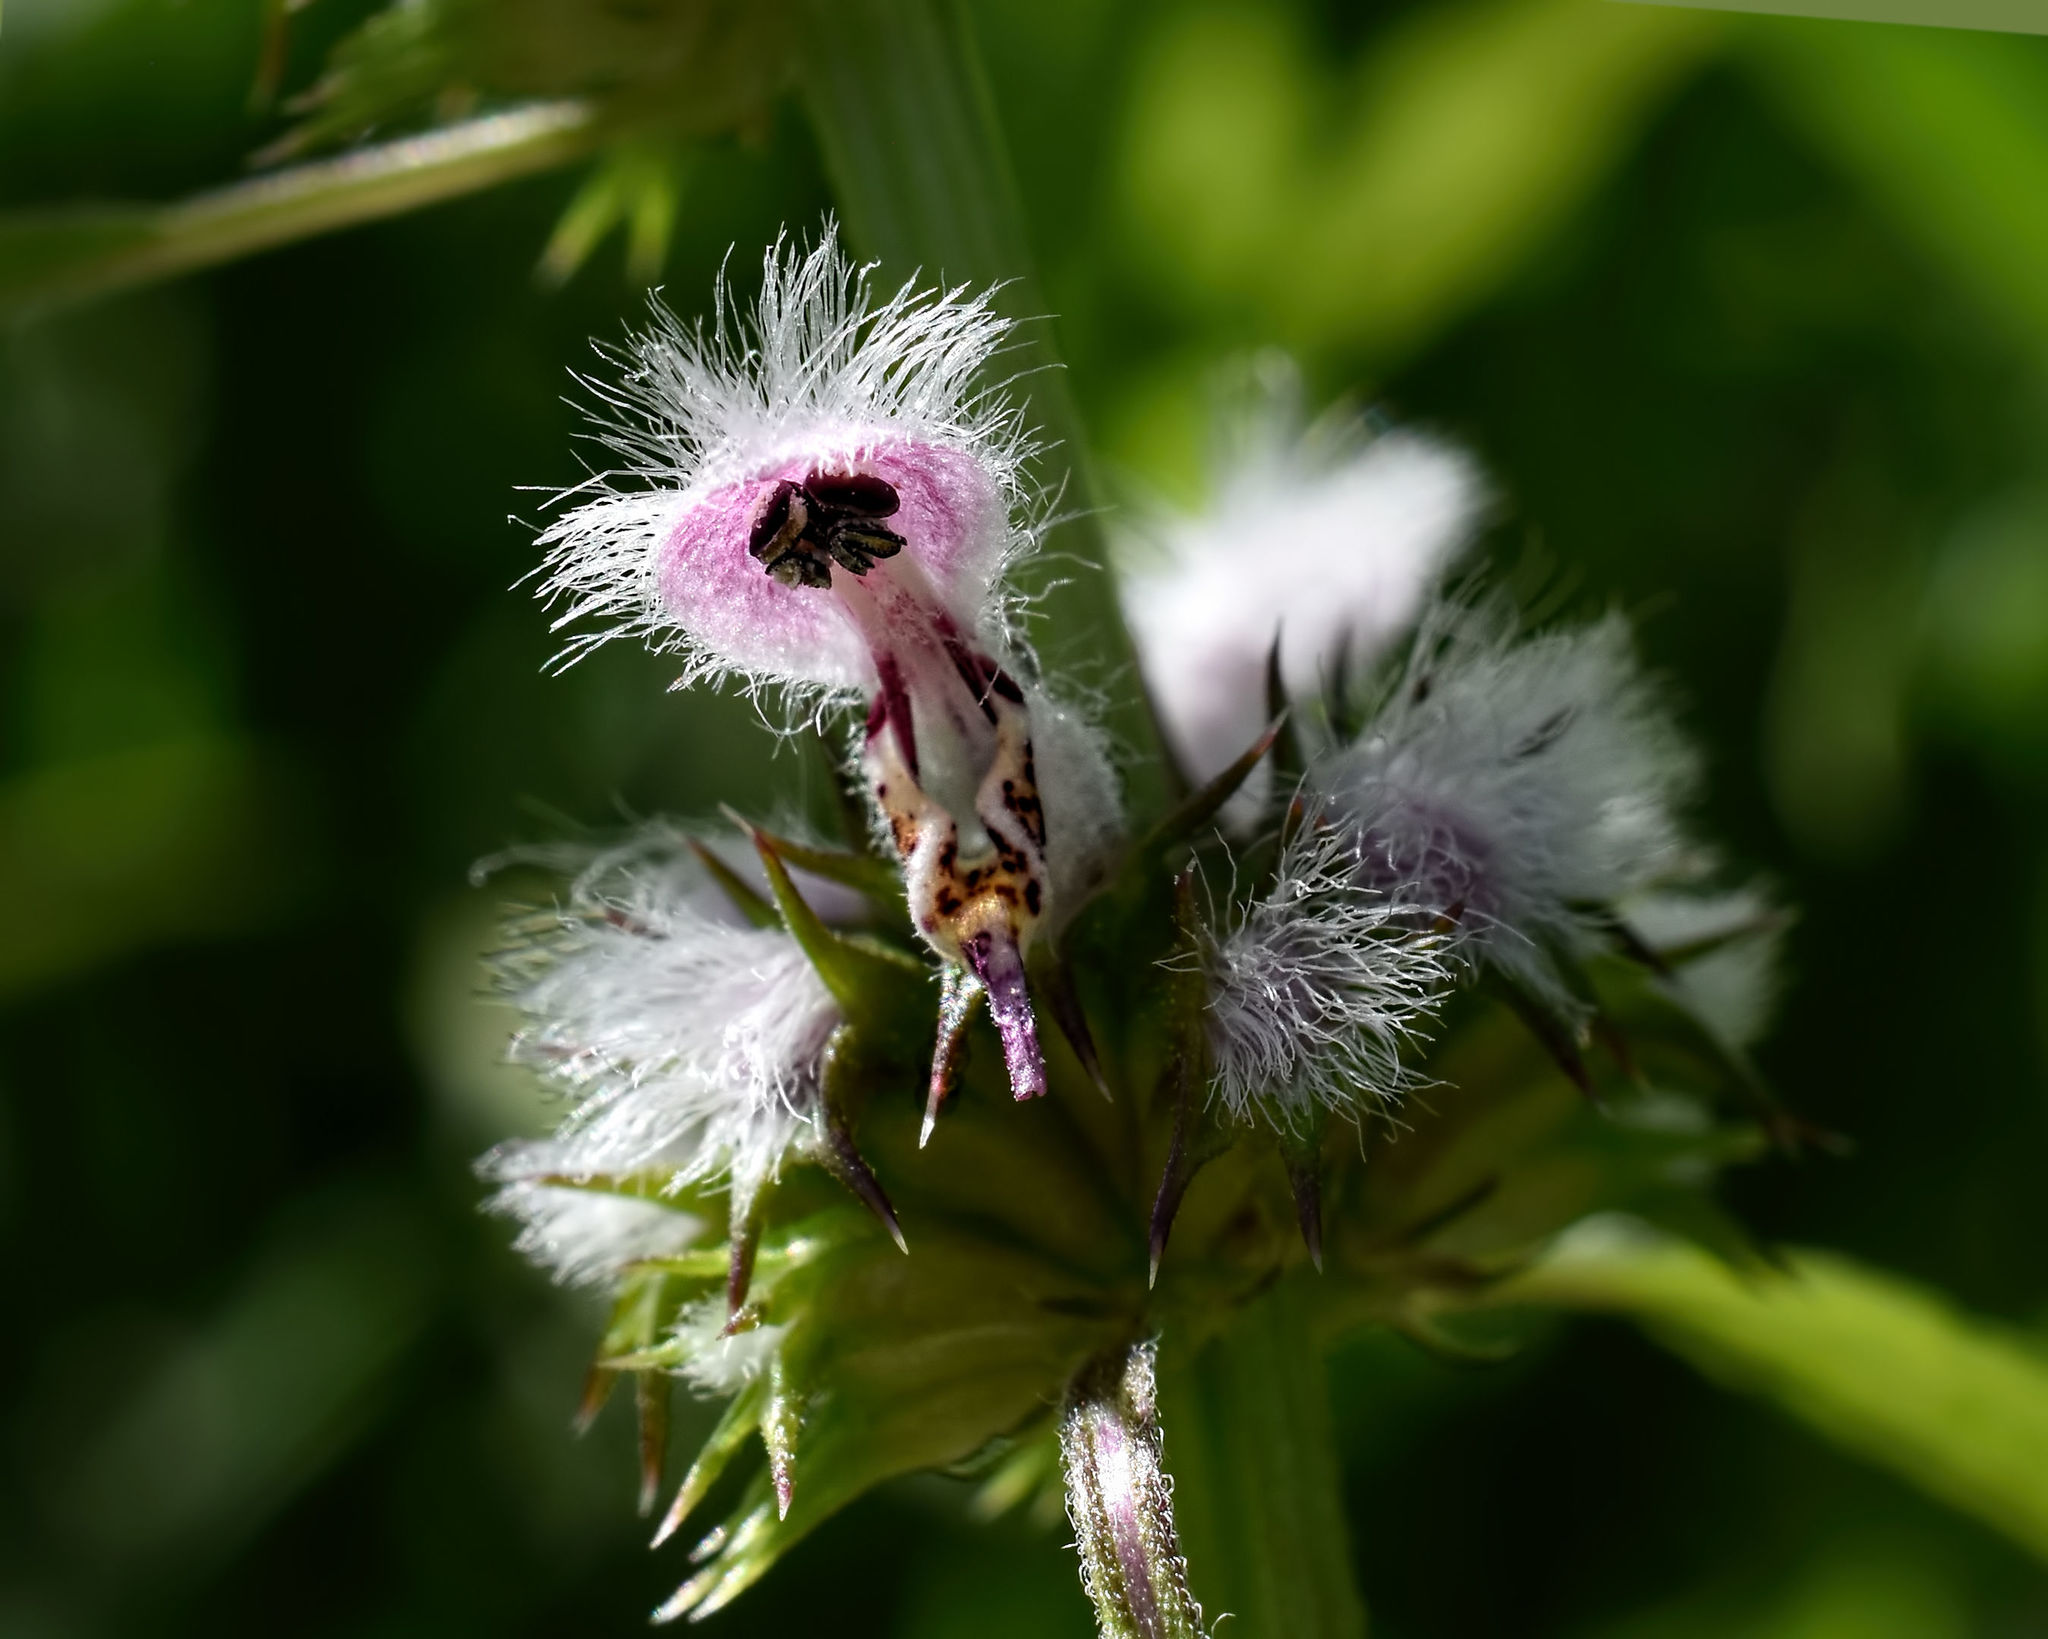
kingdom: Plantae
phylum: Tracheophyta
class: Magnoliopsida
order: Lamiales
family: Lamiaceae
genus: Leonurus
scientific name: Leonurus cardiaca
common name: Motherwort
